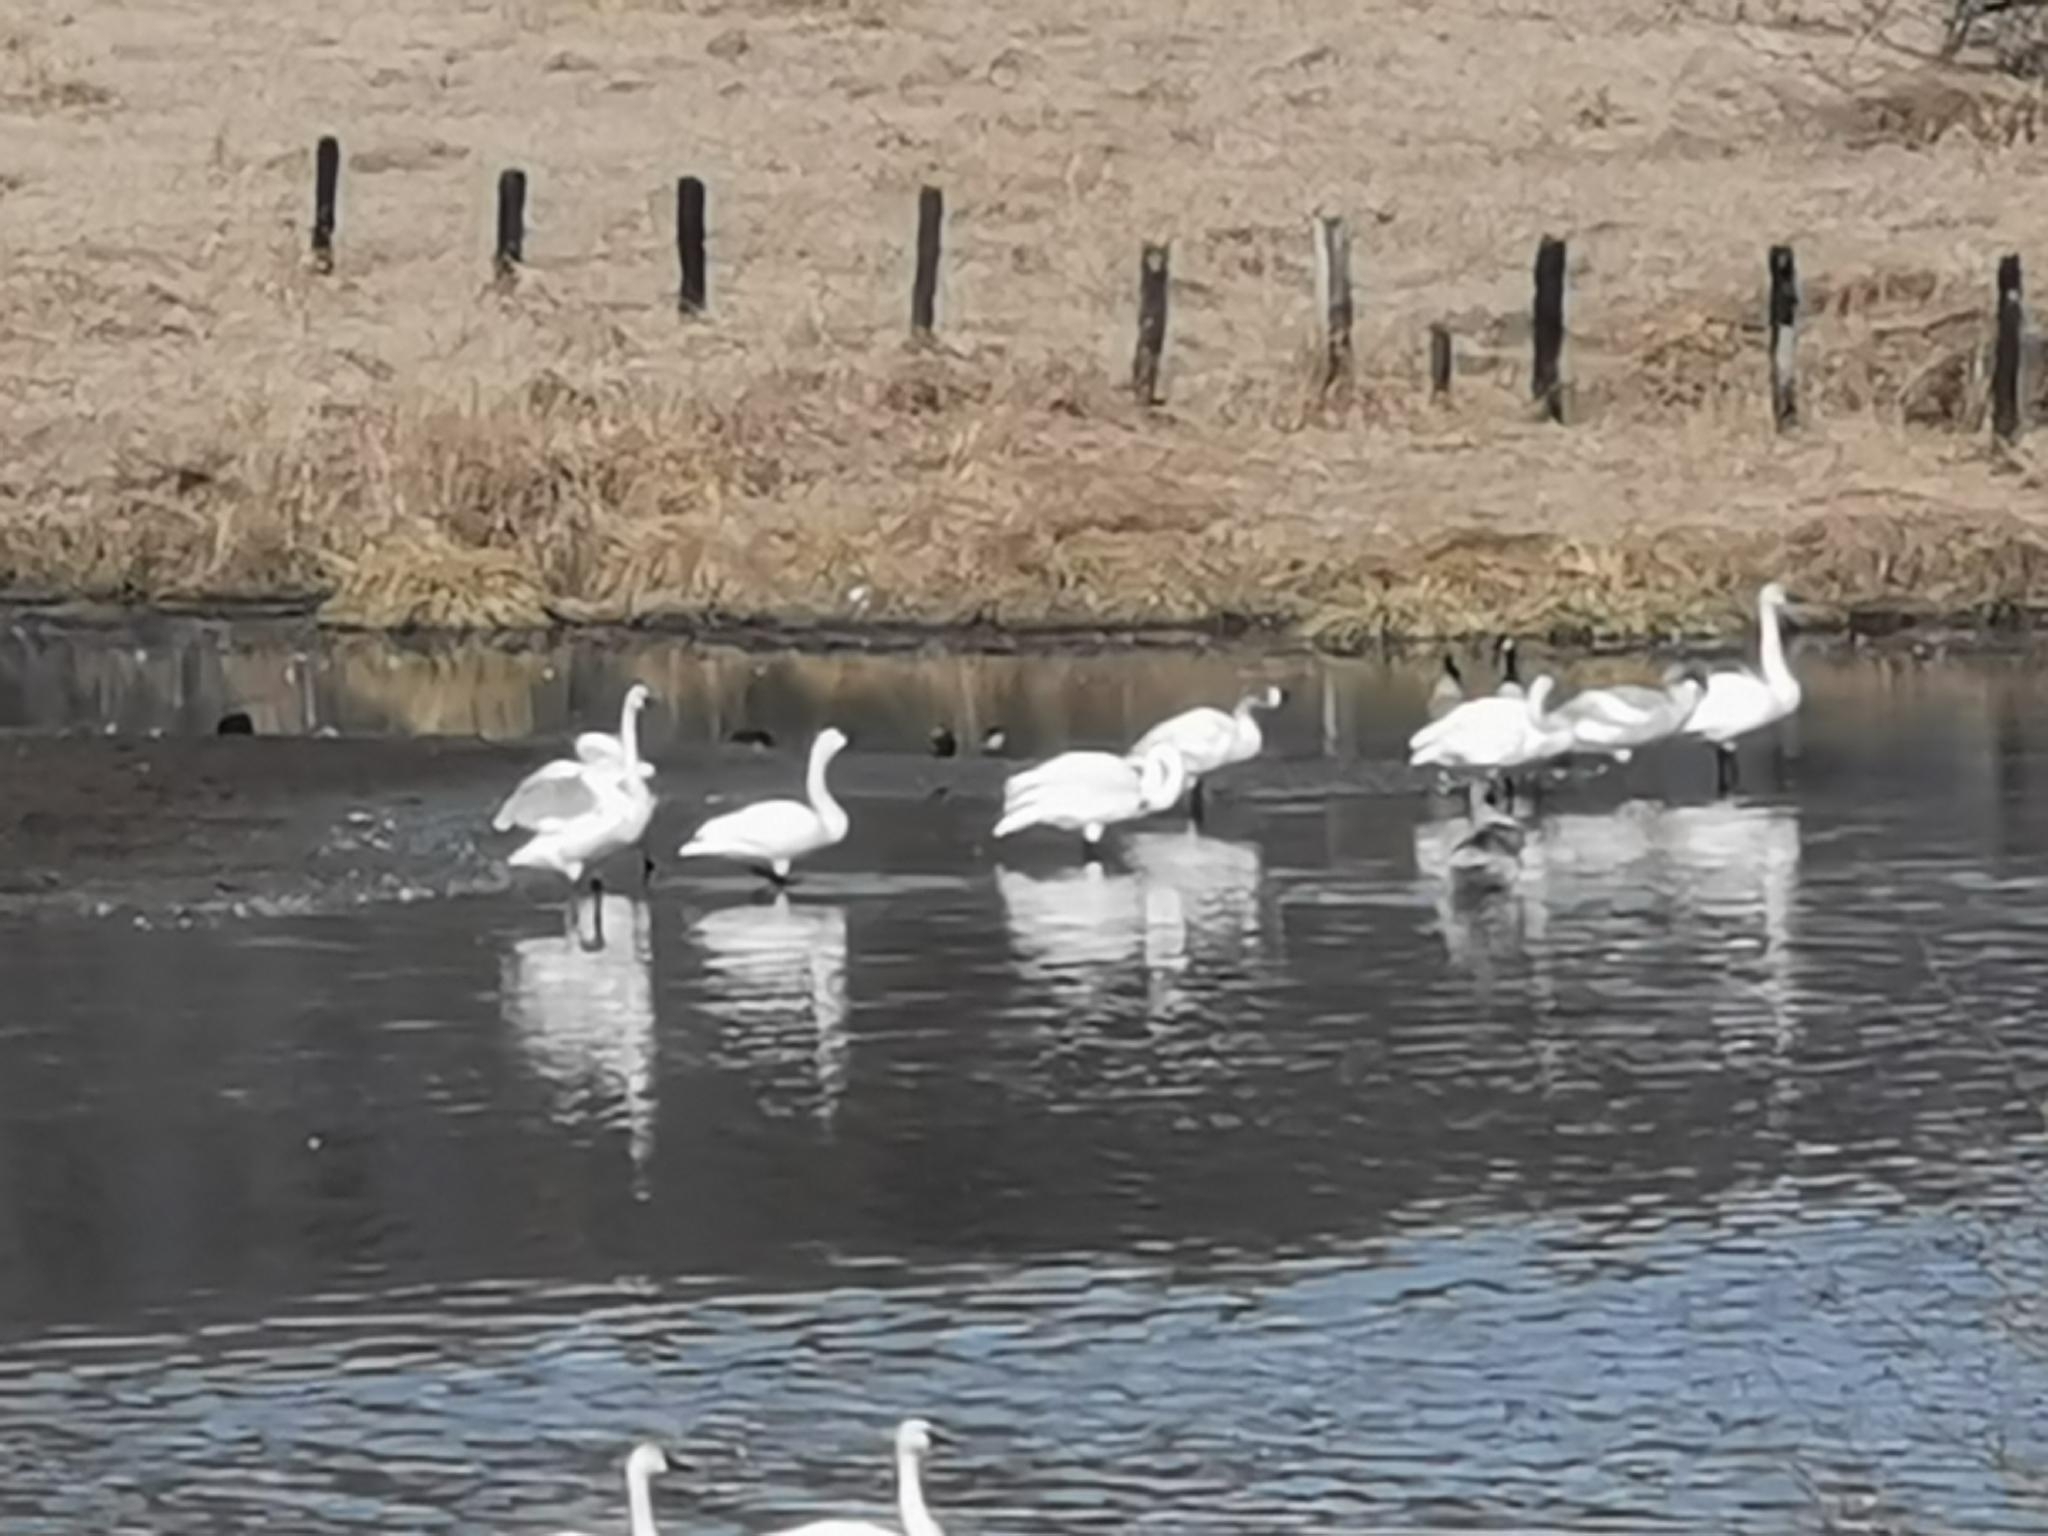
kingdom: Animalia
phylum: Chordata
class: Aves
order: Anseriformes
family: Anatidae
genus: Cygnus
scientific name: Cygnus columbianus
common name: Tundra swan
